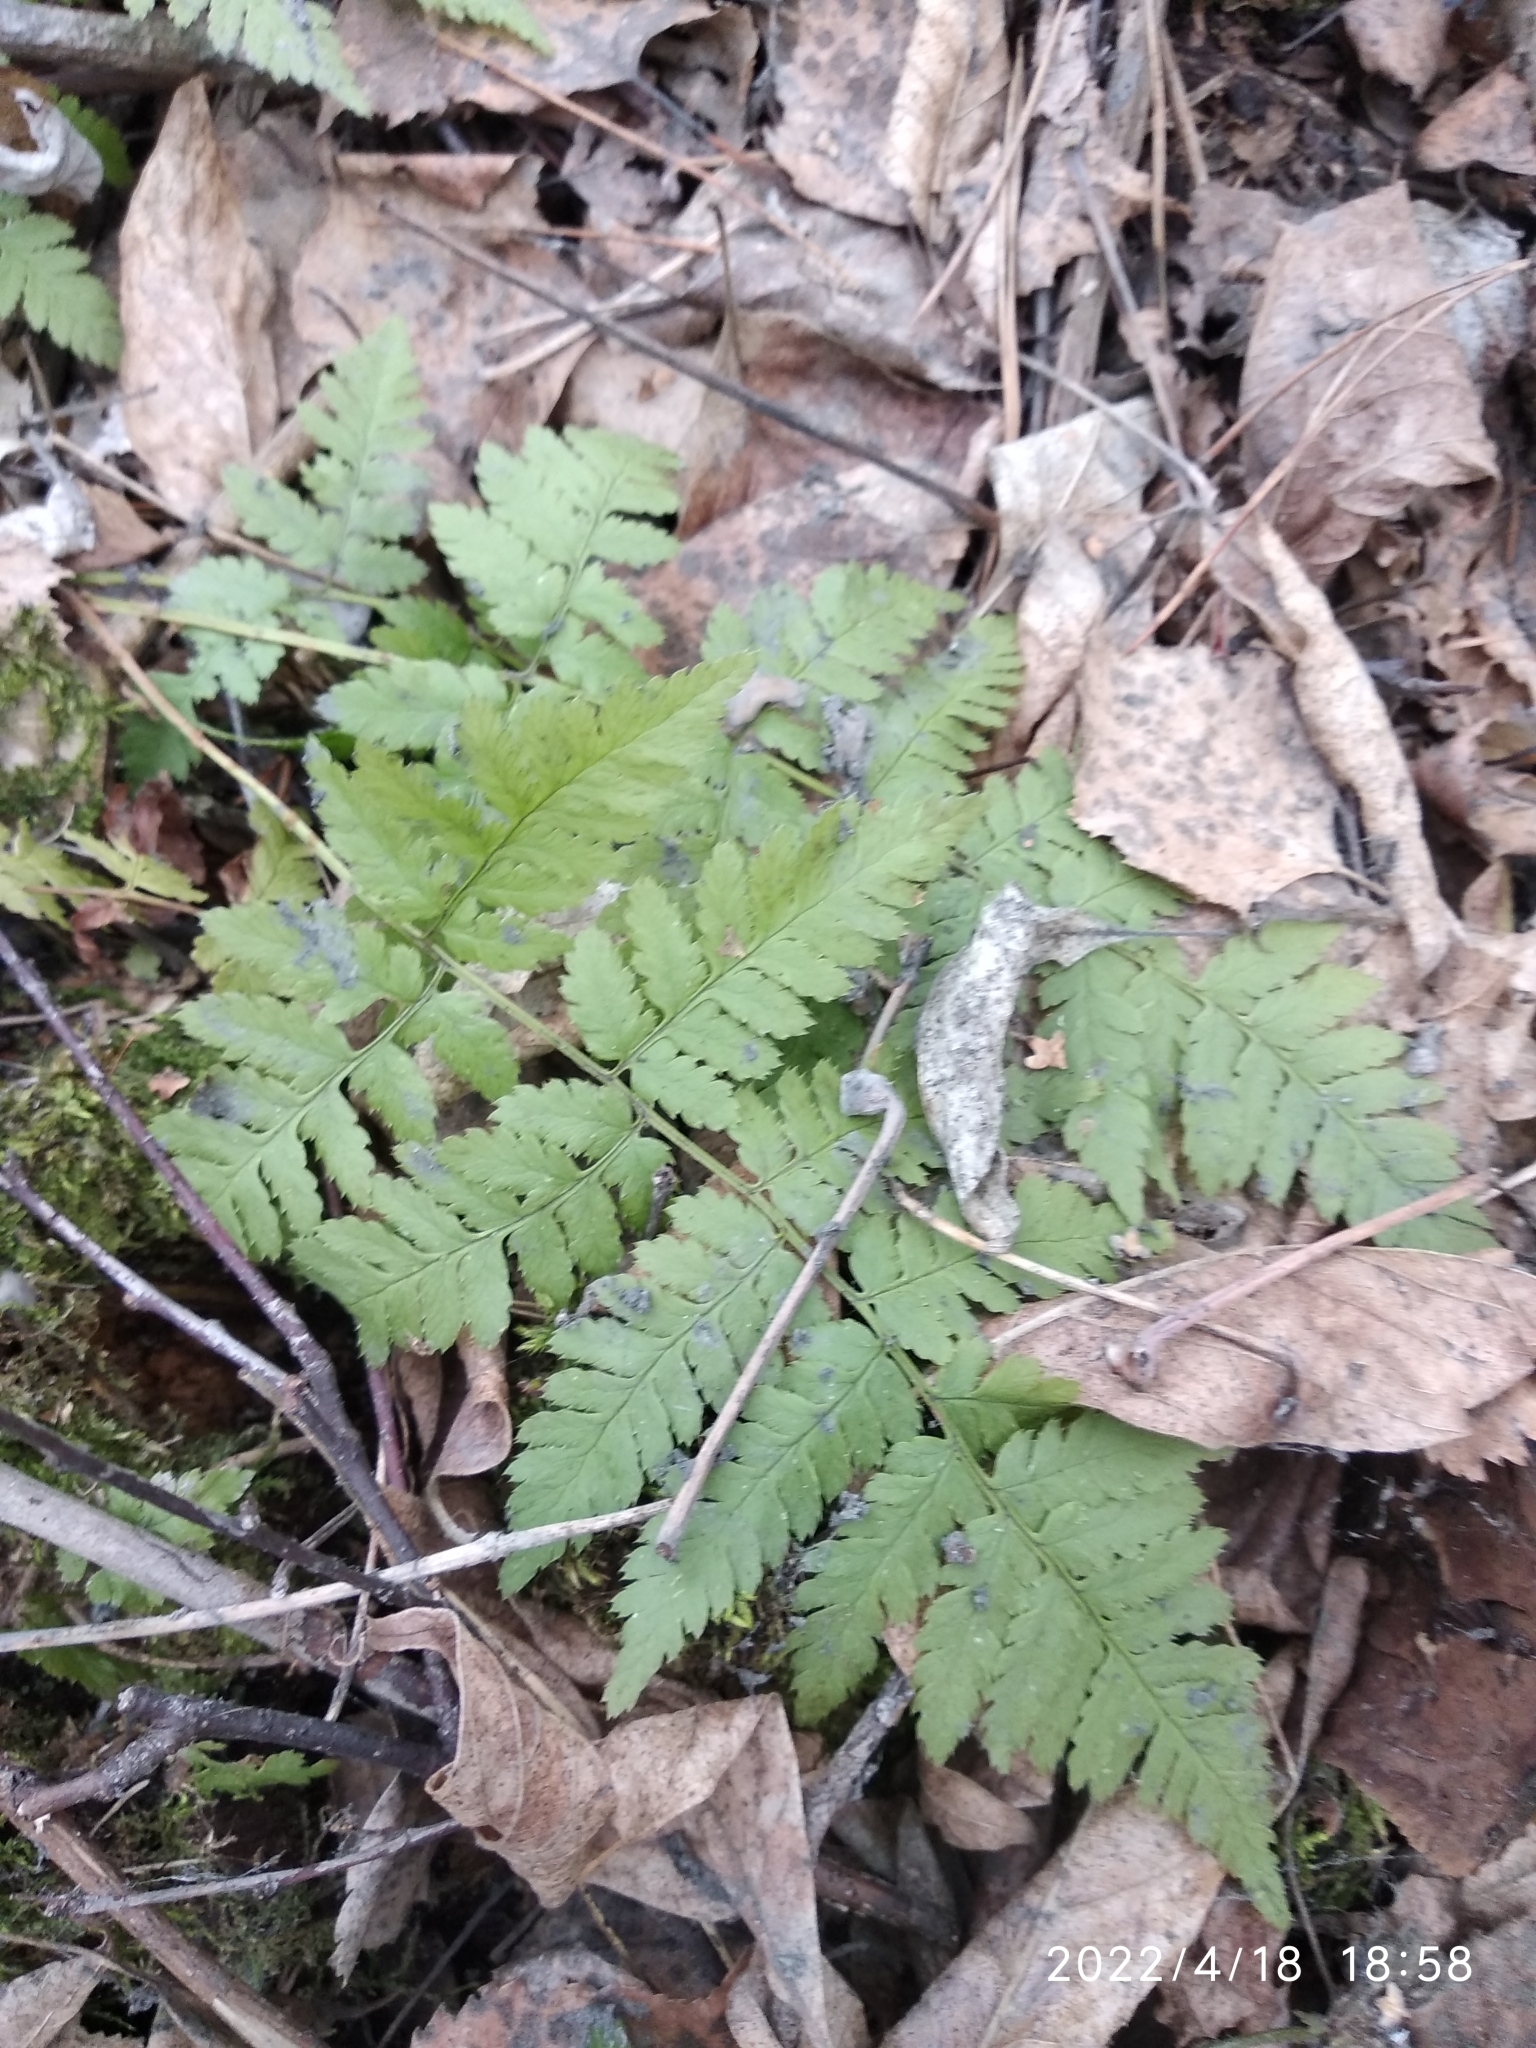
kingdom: Plantae
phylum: Tracheophyta
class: Polypodiopsida
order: Polypodiales
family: Dryopteridaceae
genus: Dryopteris
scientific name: Dryopteris carthusiana
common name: Narrow buckler-fern
